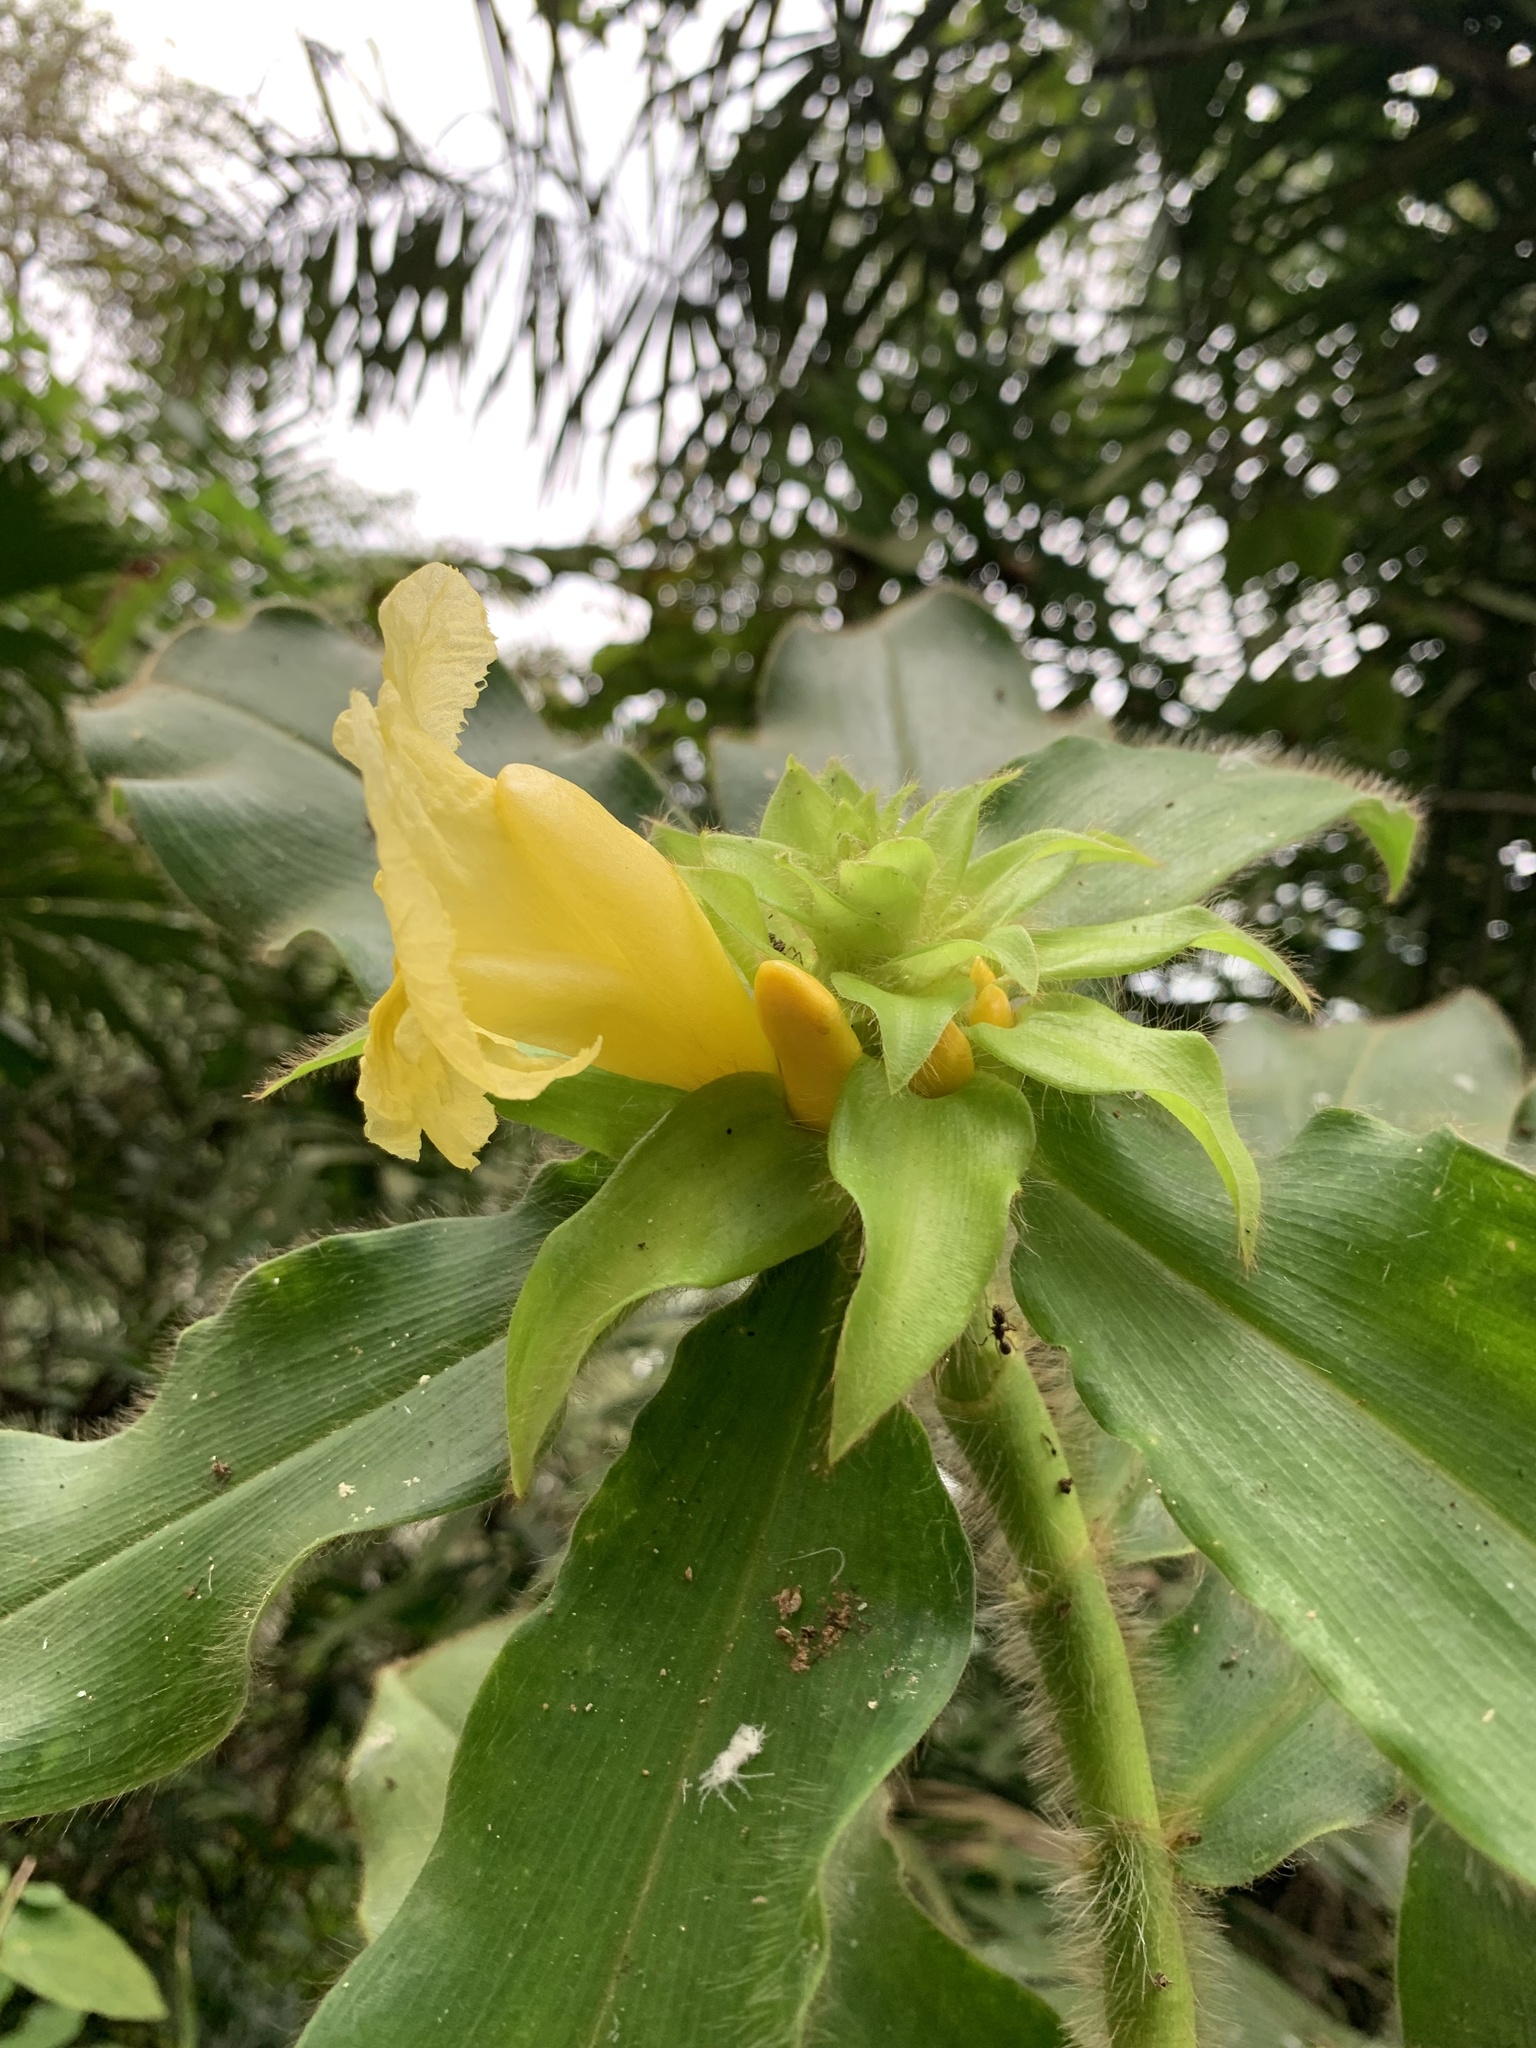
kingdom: Plantae
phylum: Tracheophyta
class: Liliopsida
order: Zingiberales
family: Costaceae
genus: Costus
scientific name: Costus villosissimus
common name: Spiral flag
